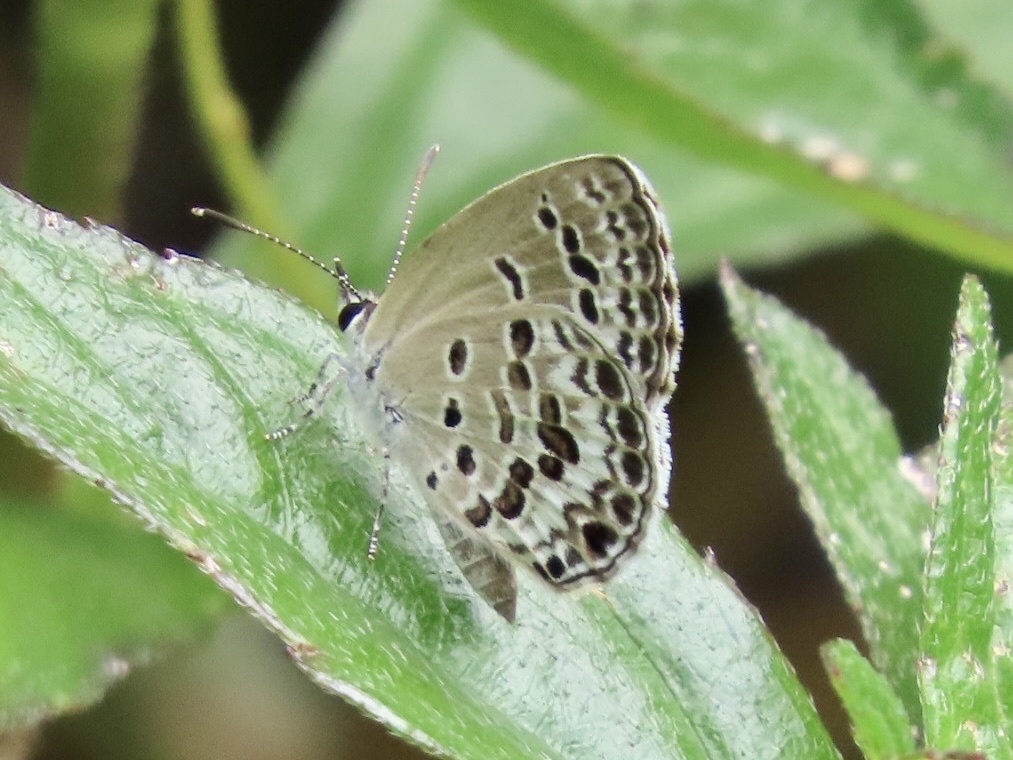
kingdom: Animalia
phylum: Arthropoda
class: Insecta
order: Lepidoptera
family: Lycaenidae
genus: Chilades
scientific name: Chilades laius
